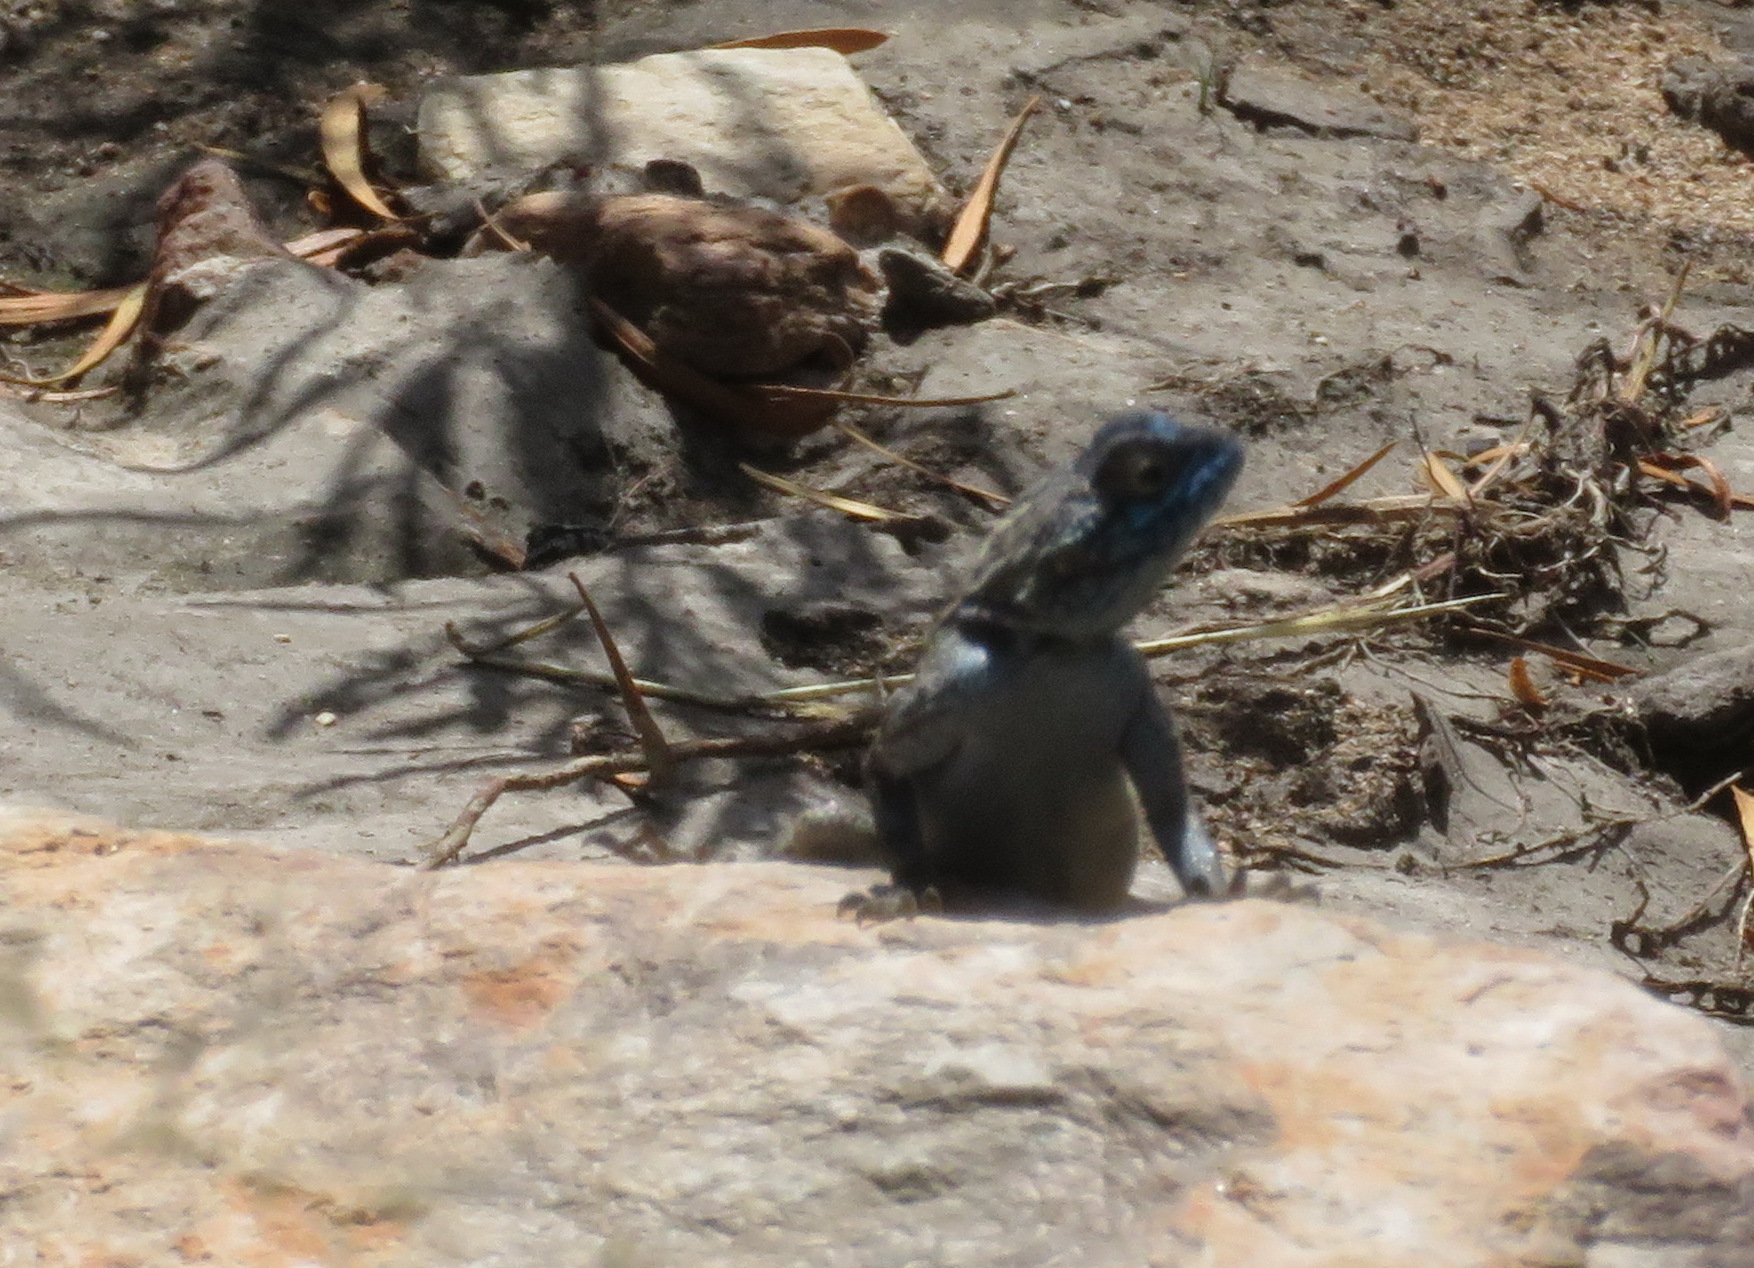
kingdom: Animalia
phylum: Chordata
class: Squamata
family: Agamidae
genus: Agama
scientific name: Agama atra
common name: Southern african rock agama
